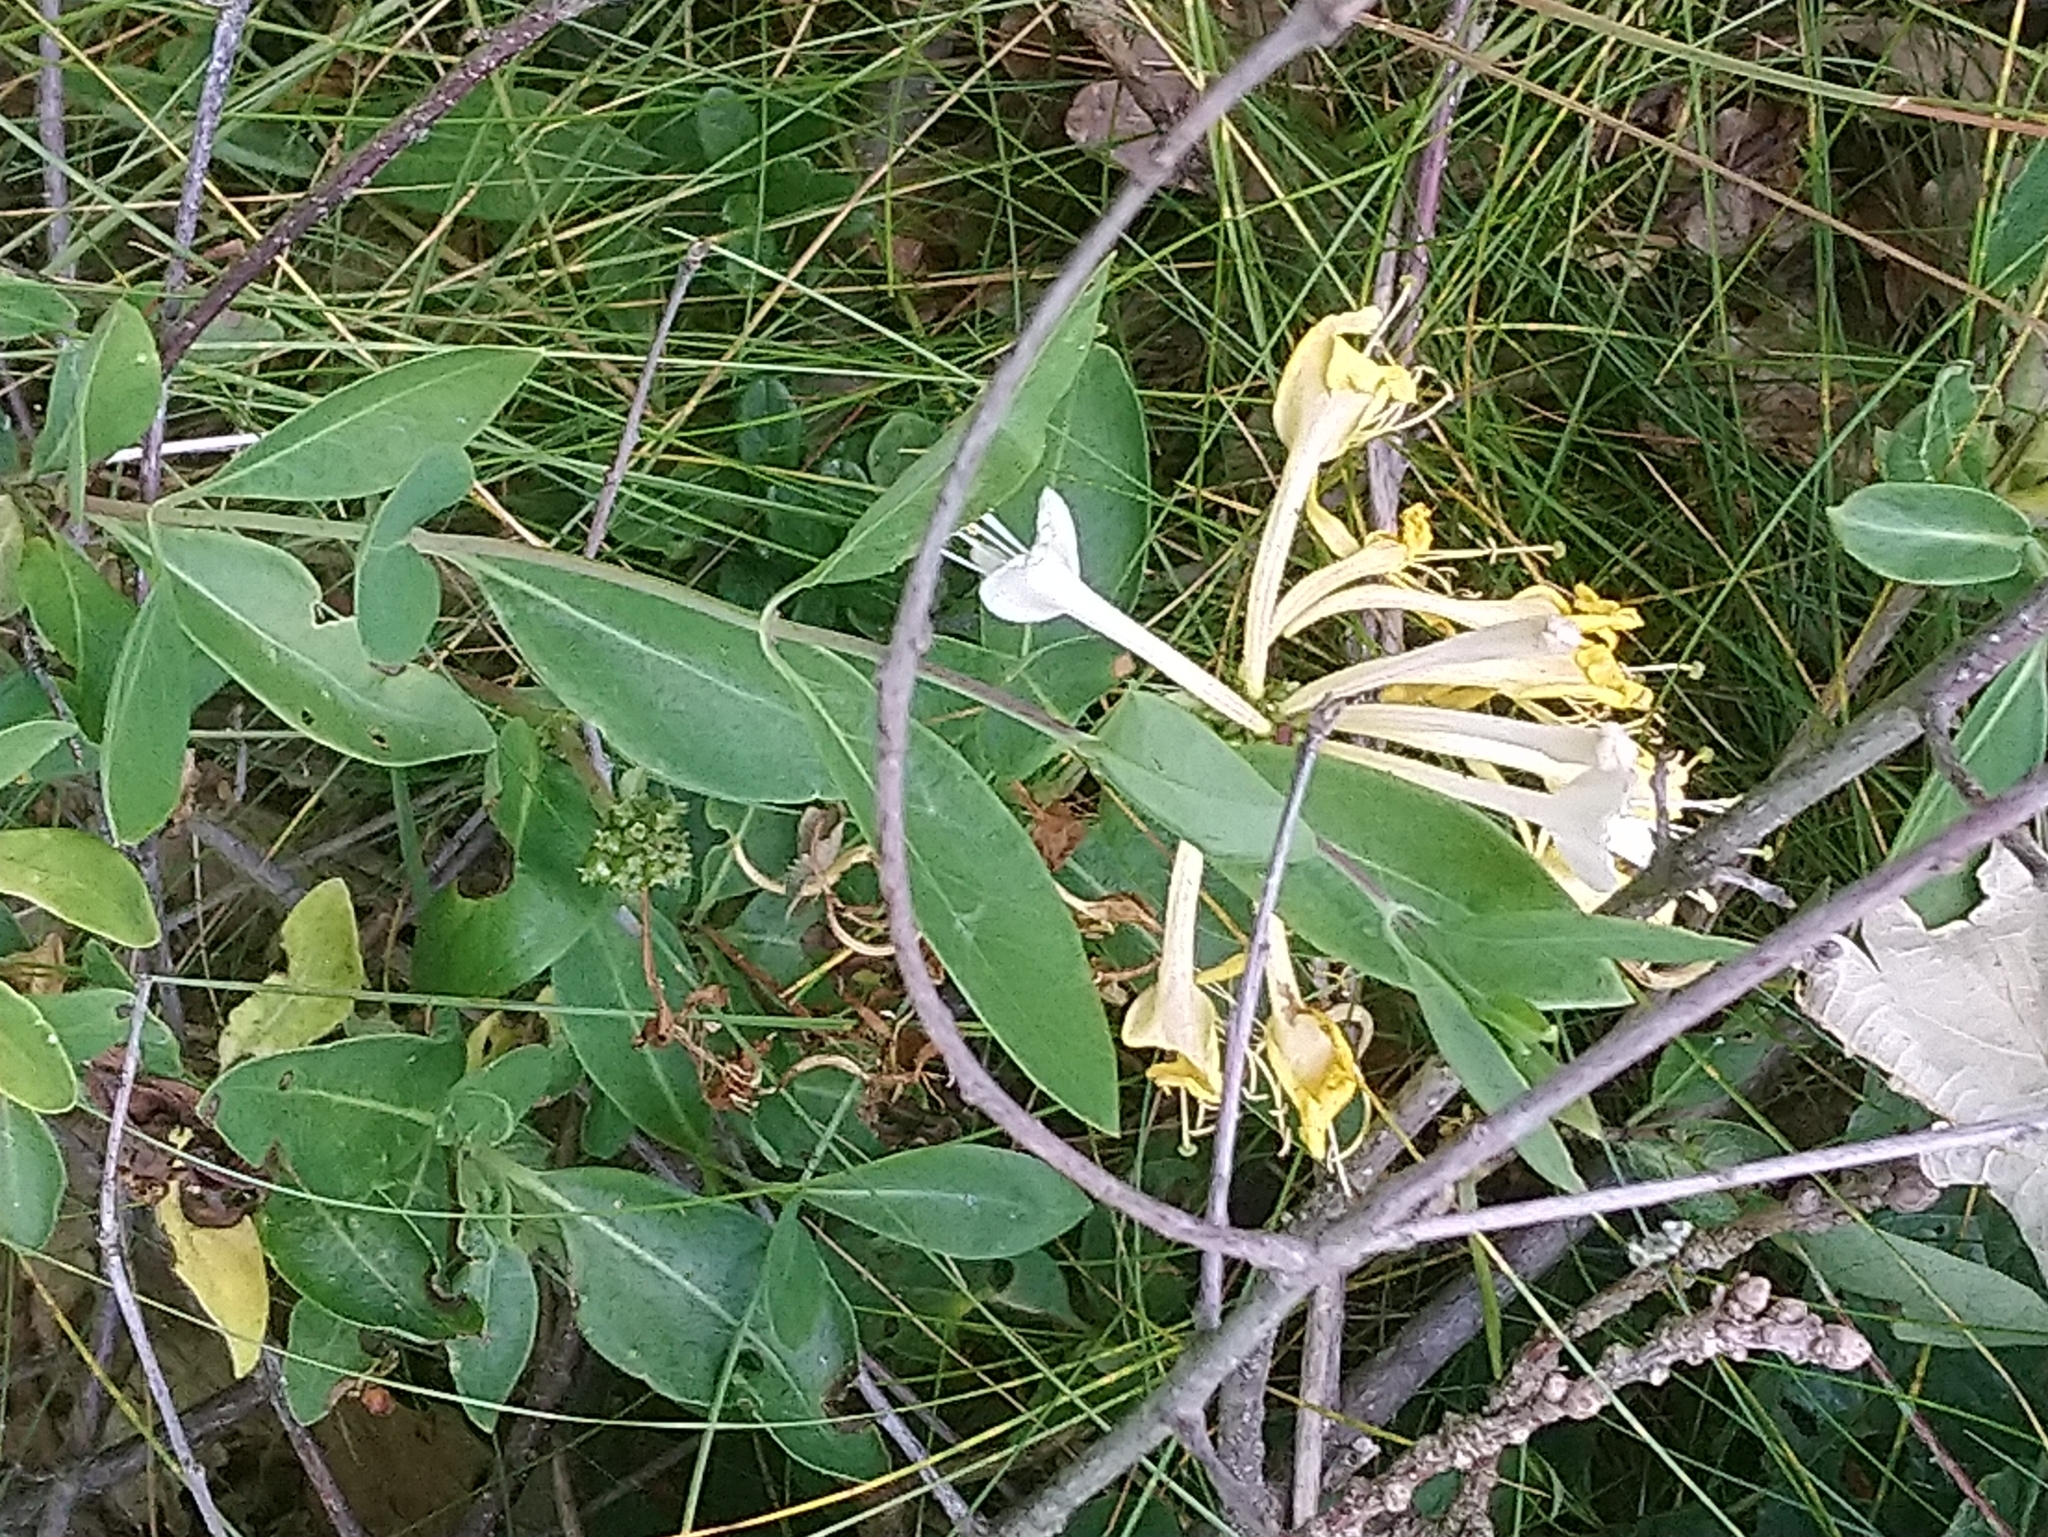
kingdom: Plantae
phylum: Tracheophyta
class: Magnoliopsida
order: Dipsacales
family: Caprifoliaceae
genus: Lonicera
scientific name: Lonicera periclymenum
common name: European honeysuckle
